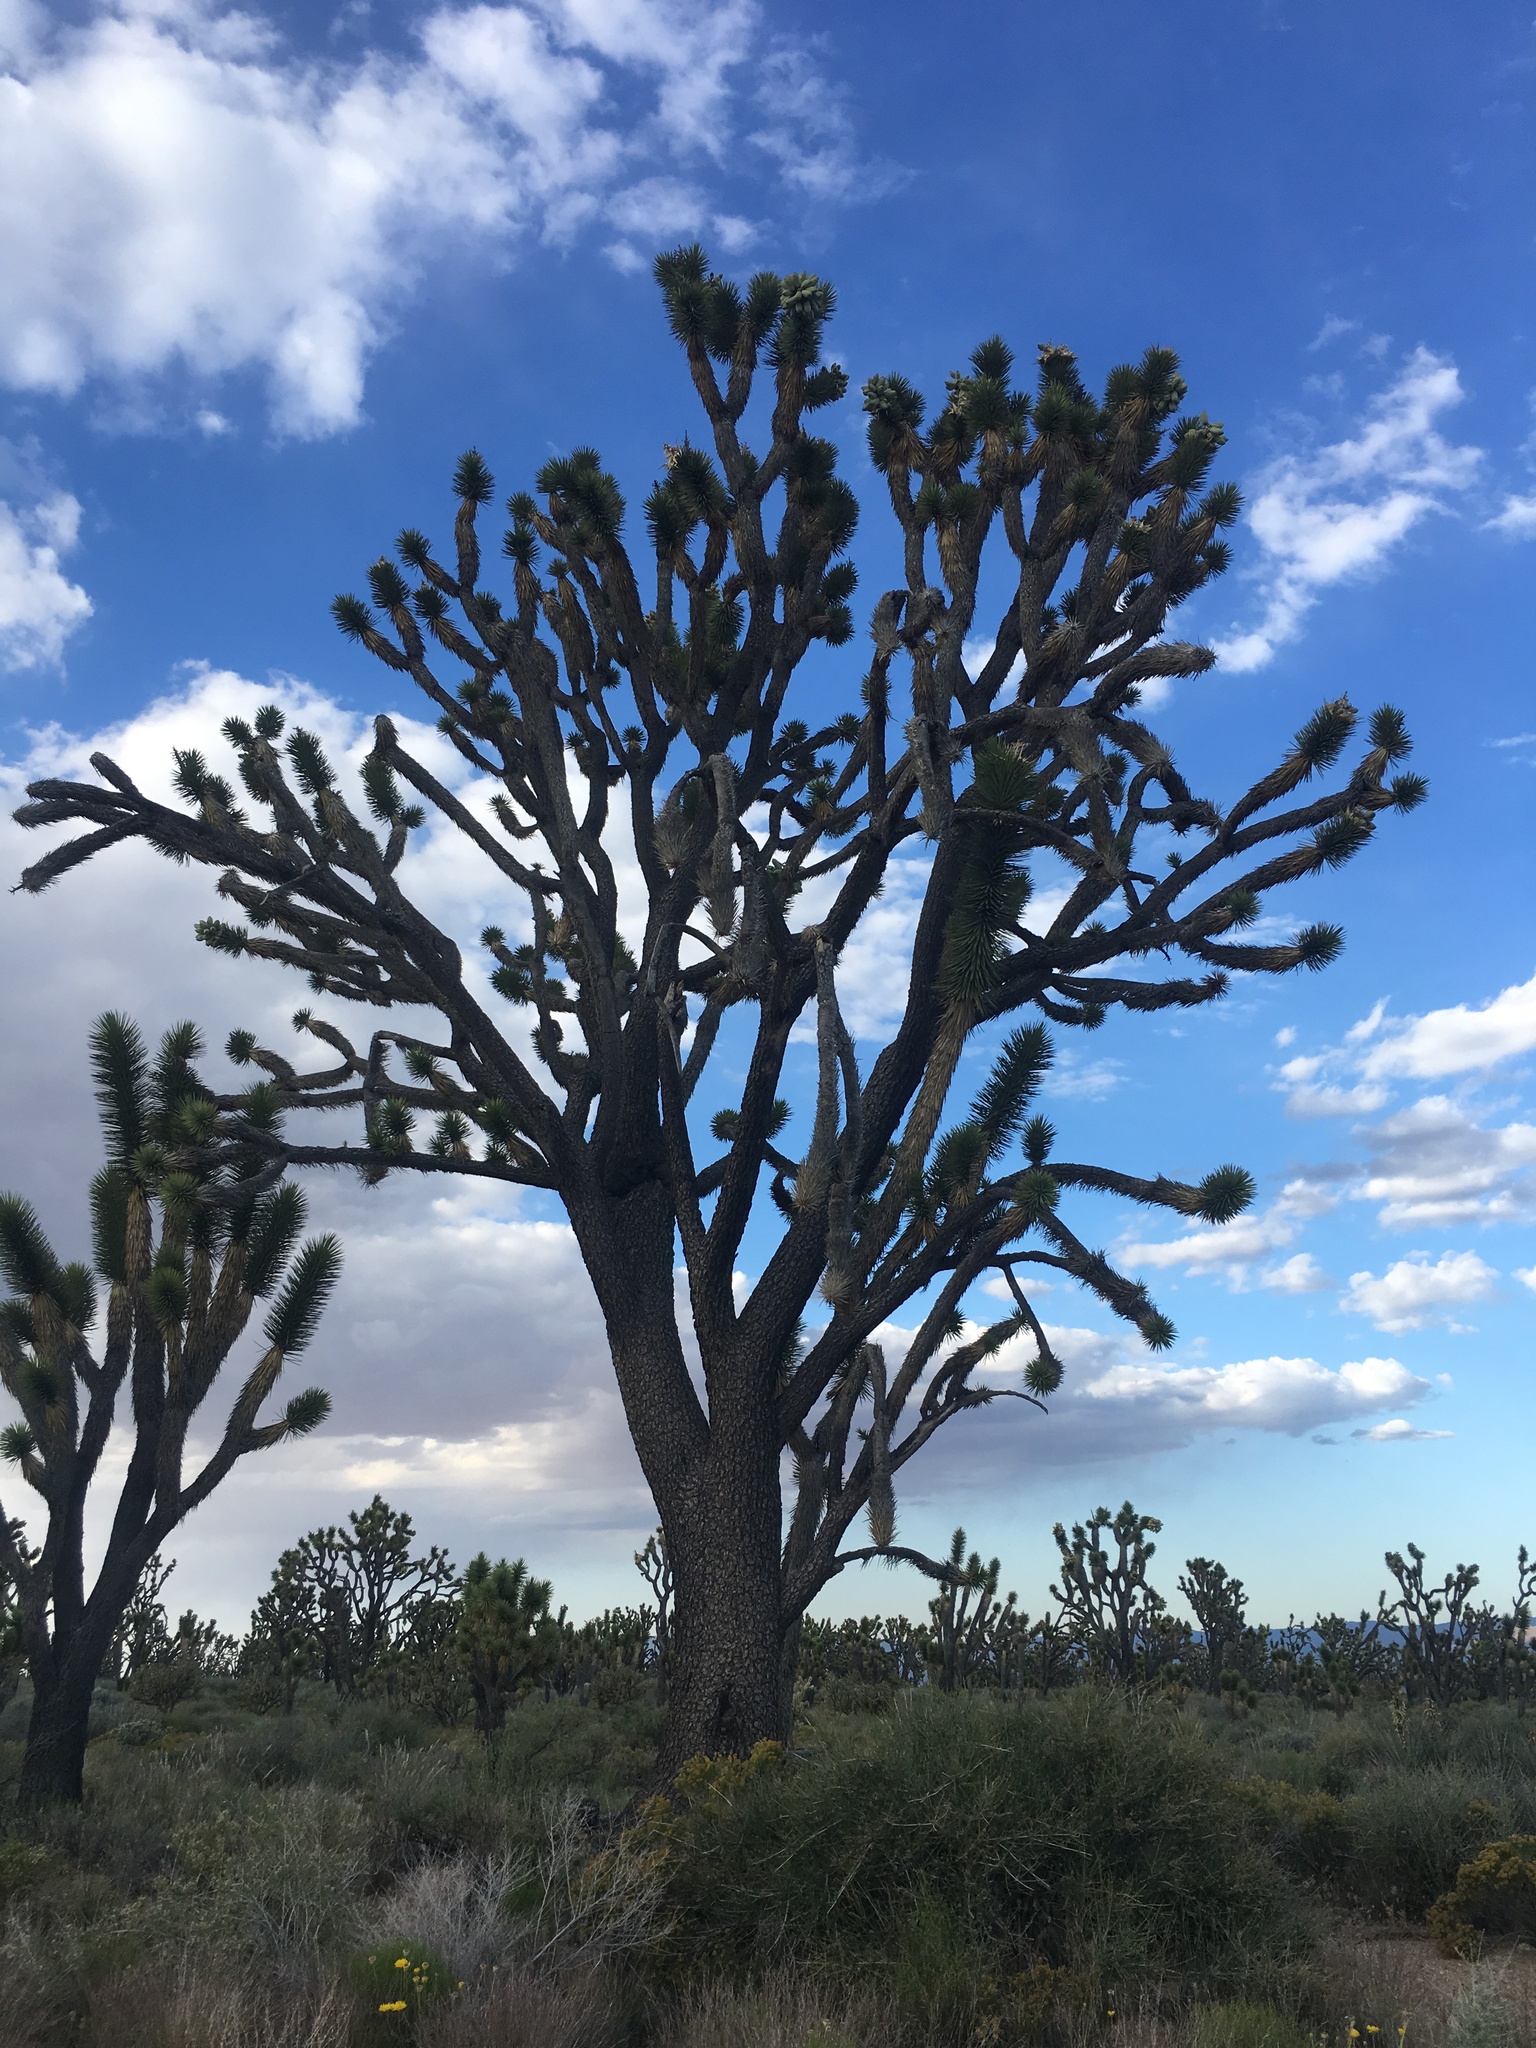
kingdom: Plantae
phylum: Tracheophyta
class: Liliopsida
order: Asparagales
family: Asparagaceae
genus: Yucca
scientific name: Yucca brevifolia
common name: Joshua tree
